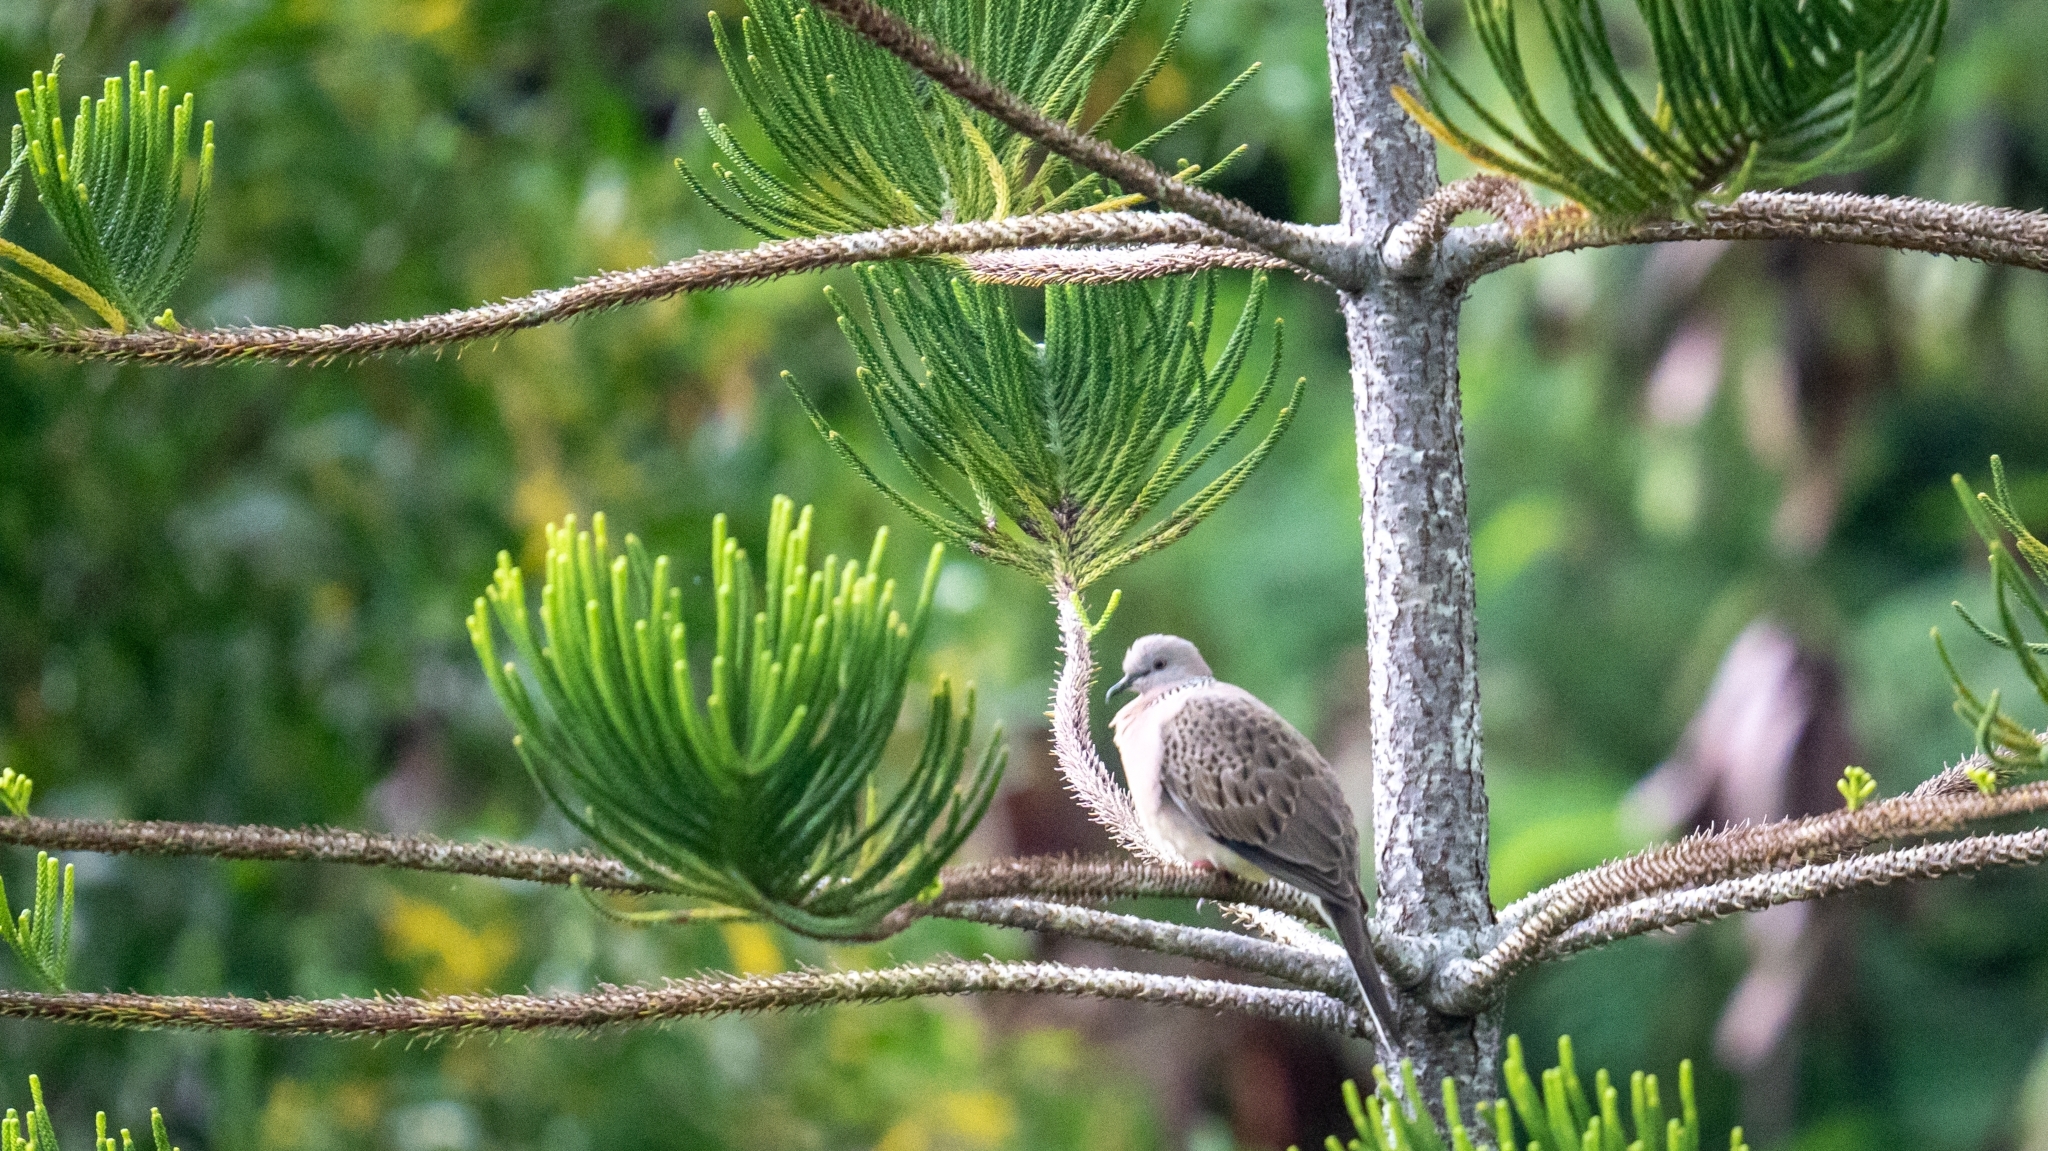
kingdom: Animalia
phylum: Chordata
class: Aves
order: Columbiformes
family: Columbidae
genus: Spilopelia
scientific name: Spilopelia chinensis
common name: Spotted dove
